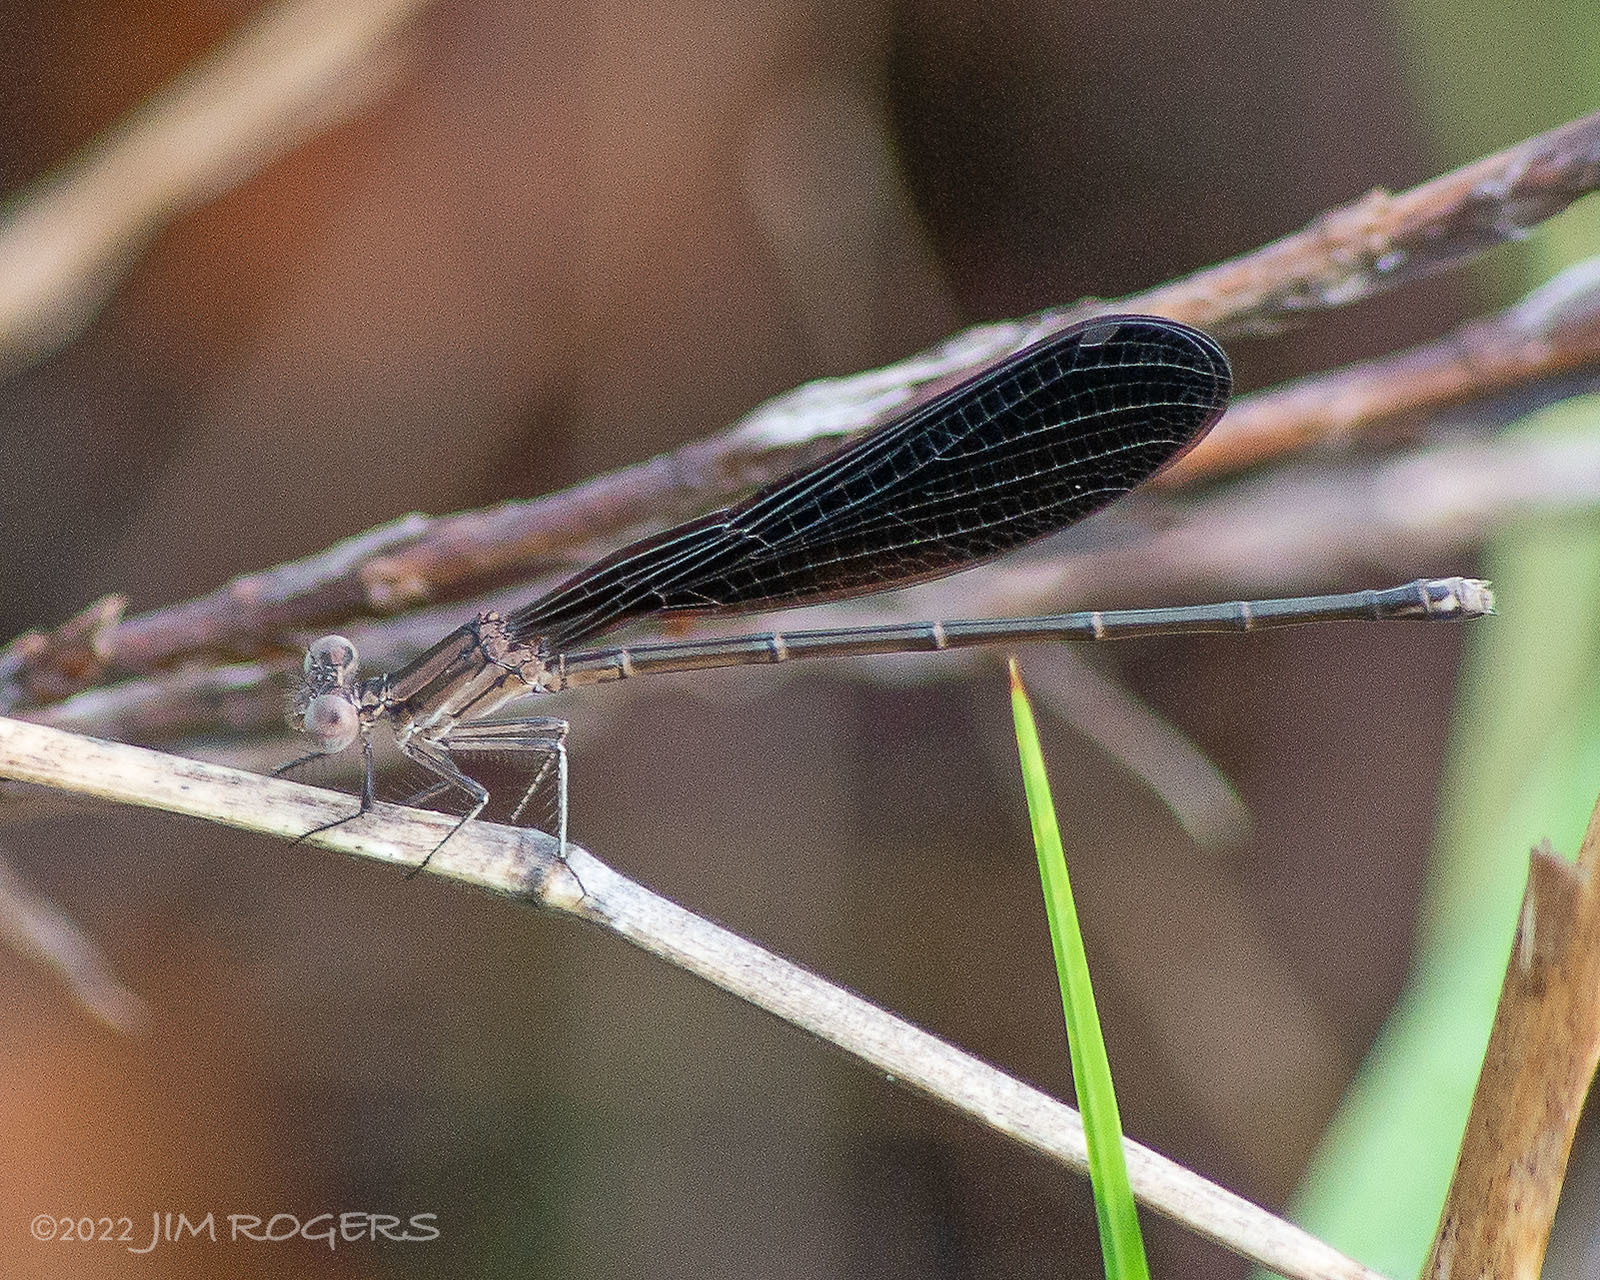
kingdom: Animalia
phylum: Arthropoda
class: Insecta
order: Odonata
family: Coenagrionidae
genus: Argia
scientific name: Argia fumipennis
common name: Variable dancer
